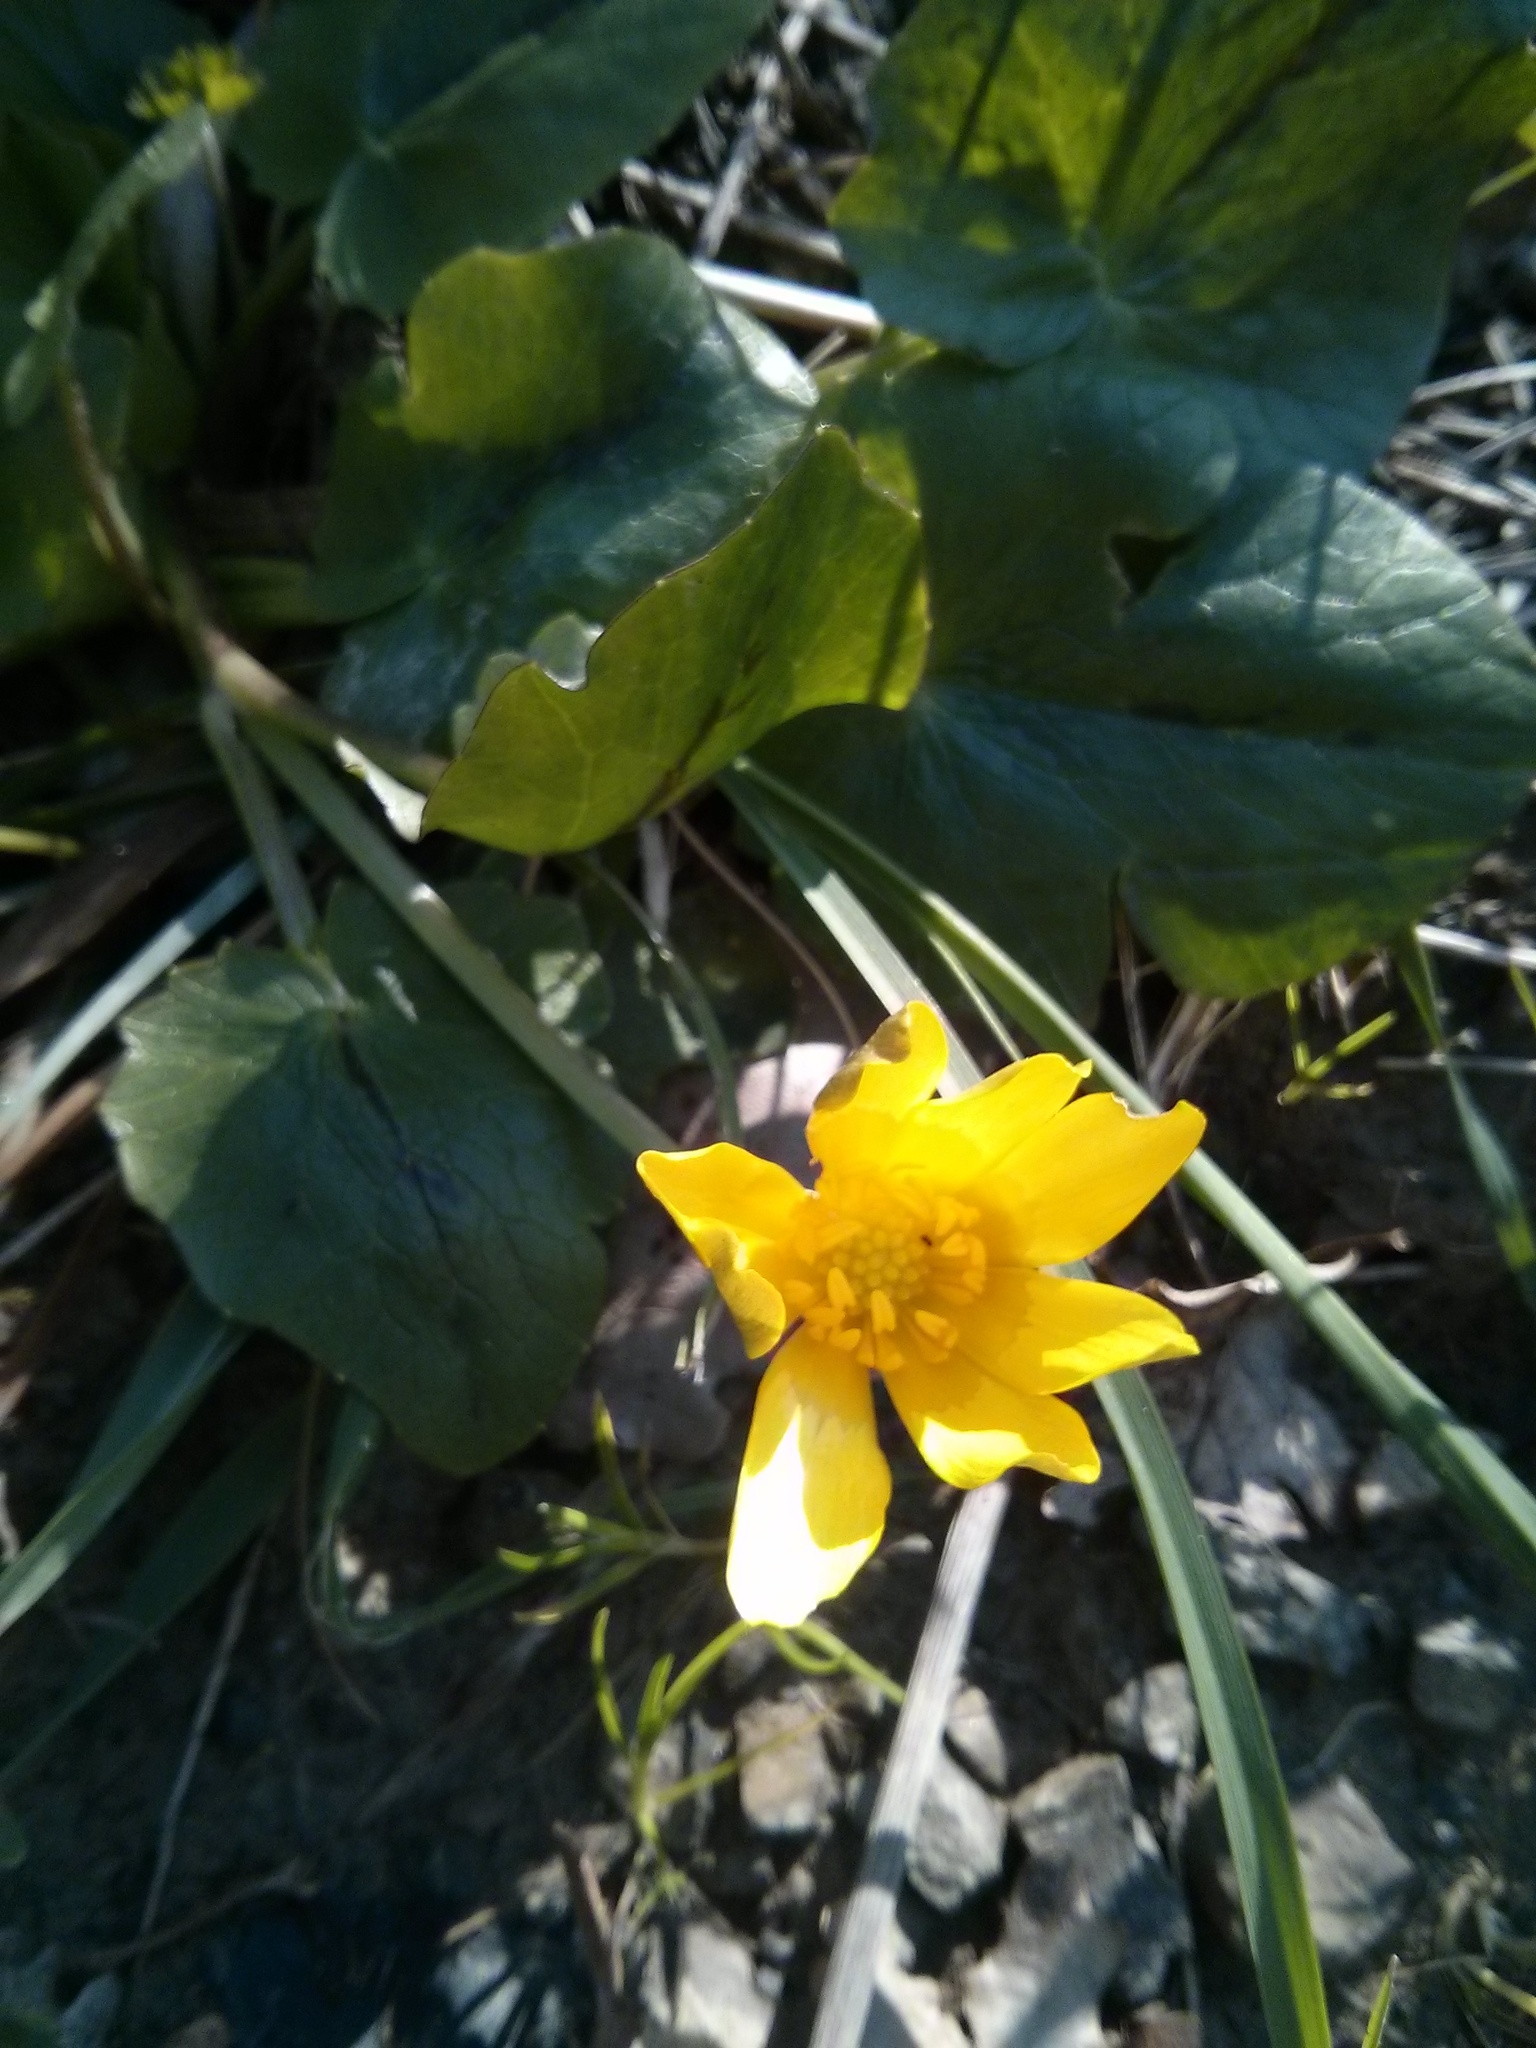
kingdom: Plantae
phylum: Tracheophyta
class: Magnoliopsida
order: Ranunculales
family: Ranunculaceae
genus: Ficaria
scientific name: Ficaria verna
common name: Lesser celandine
